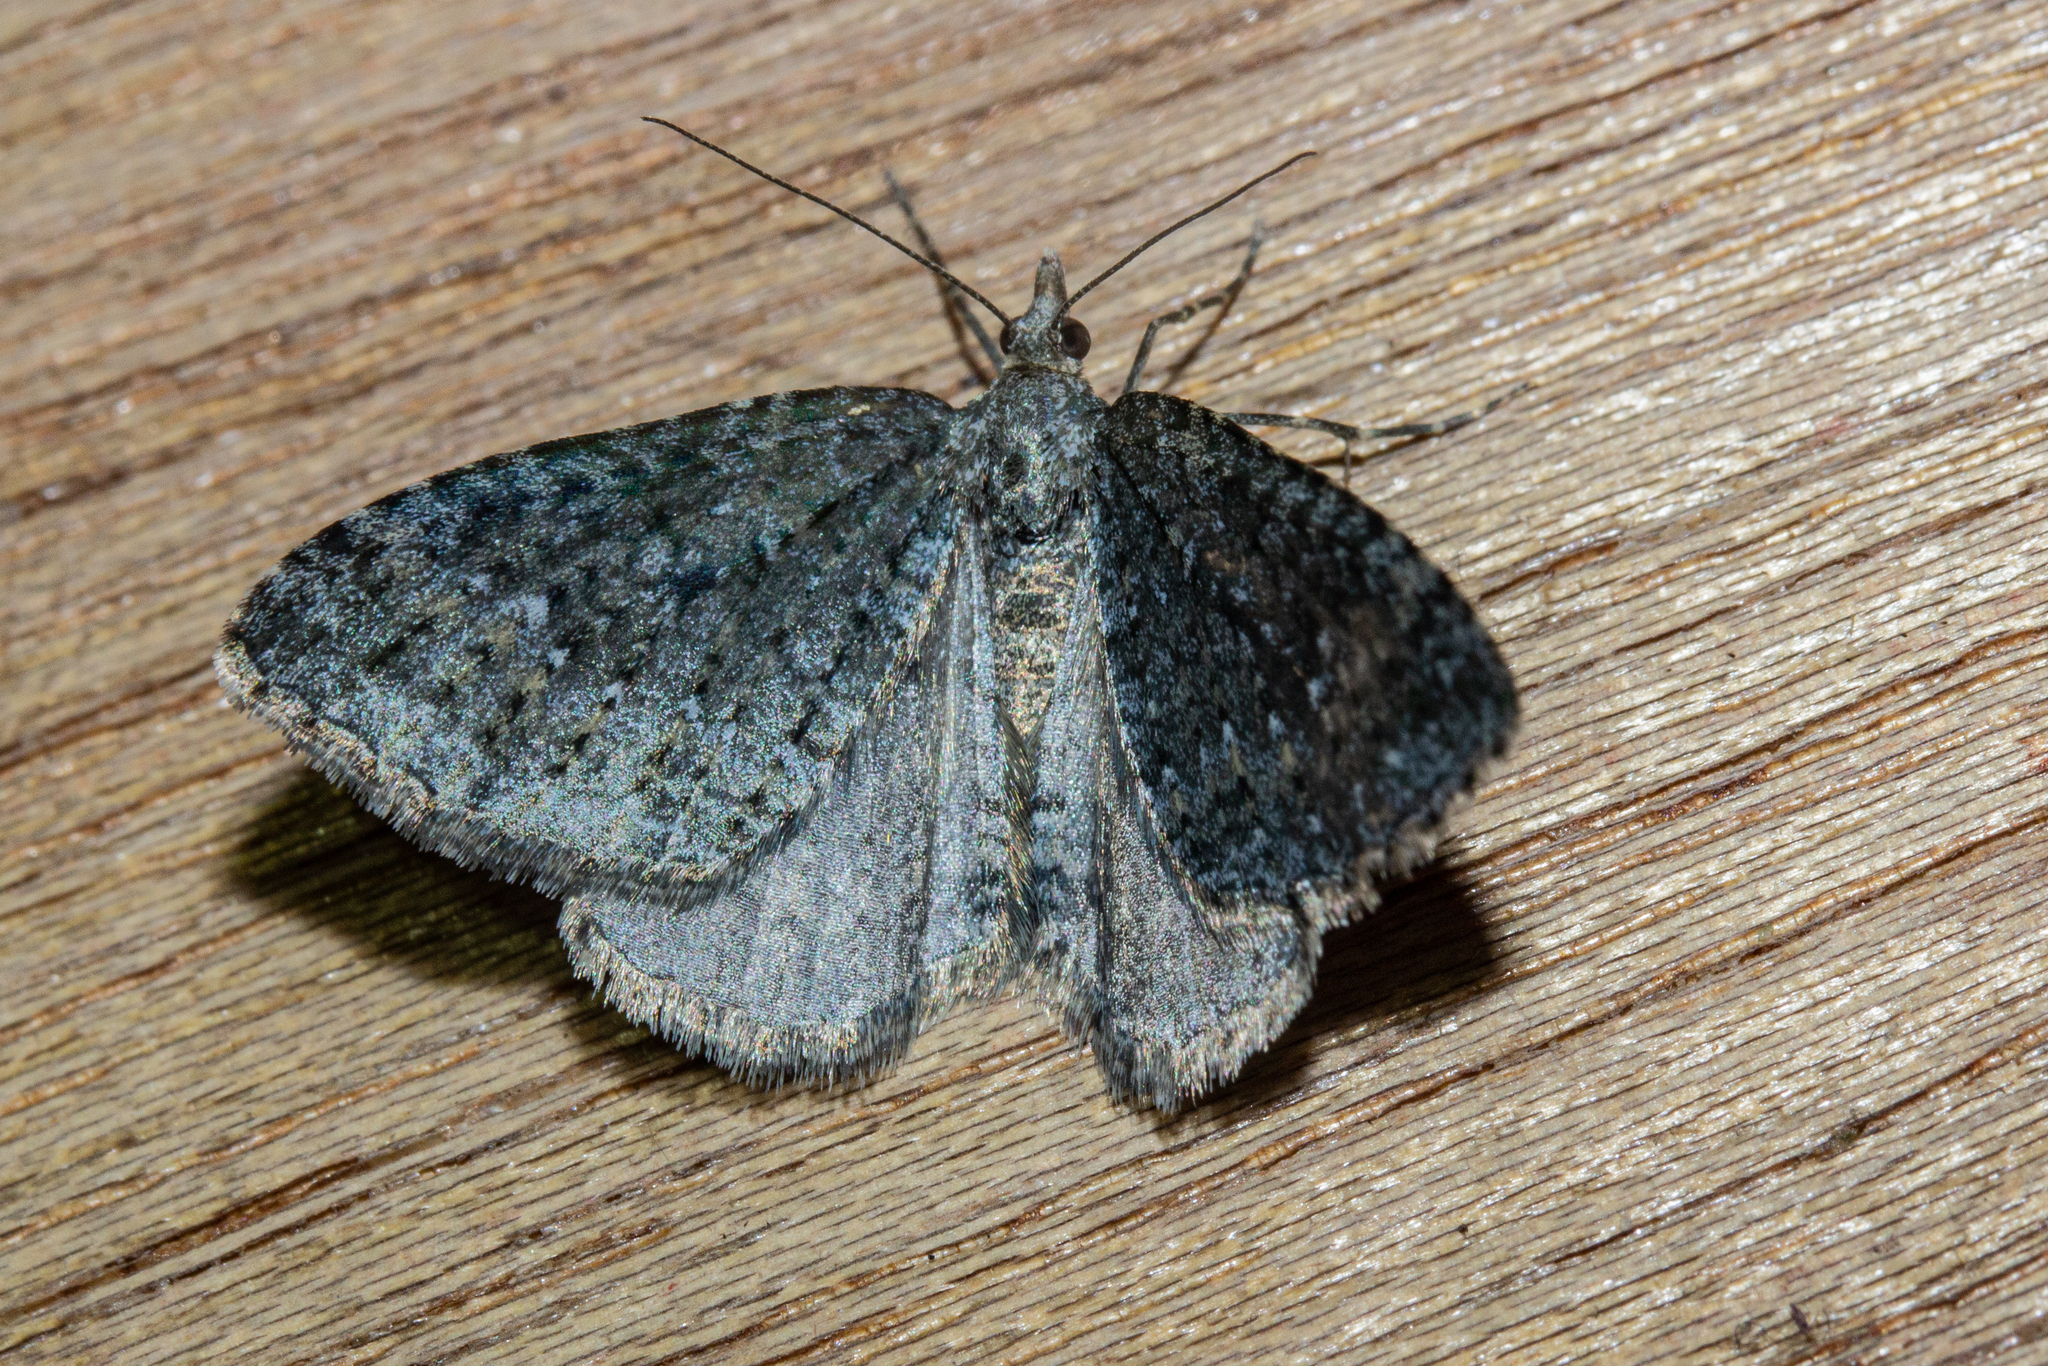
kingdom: Animalia
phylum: Arthropoda
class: Insecta
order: Lepidoptera
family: Geometridae
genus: Helastia
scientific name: Helastia corcularia
